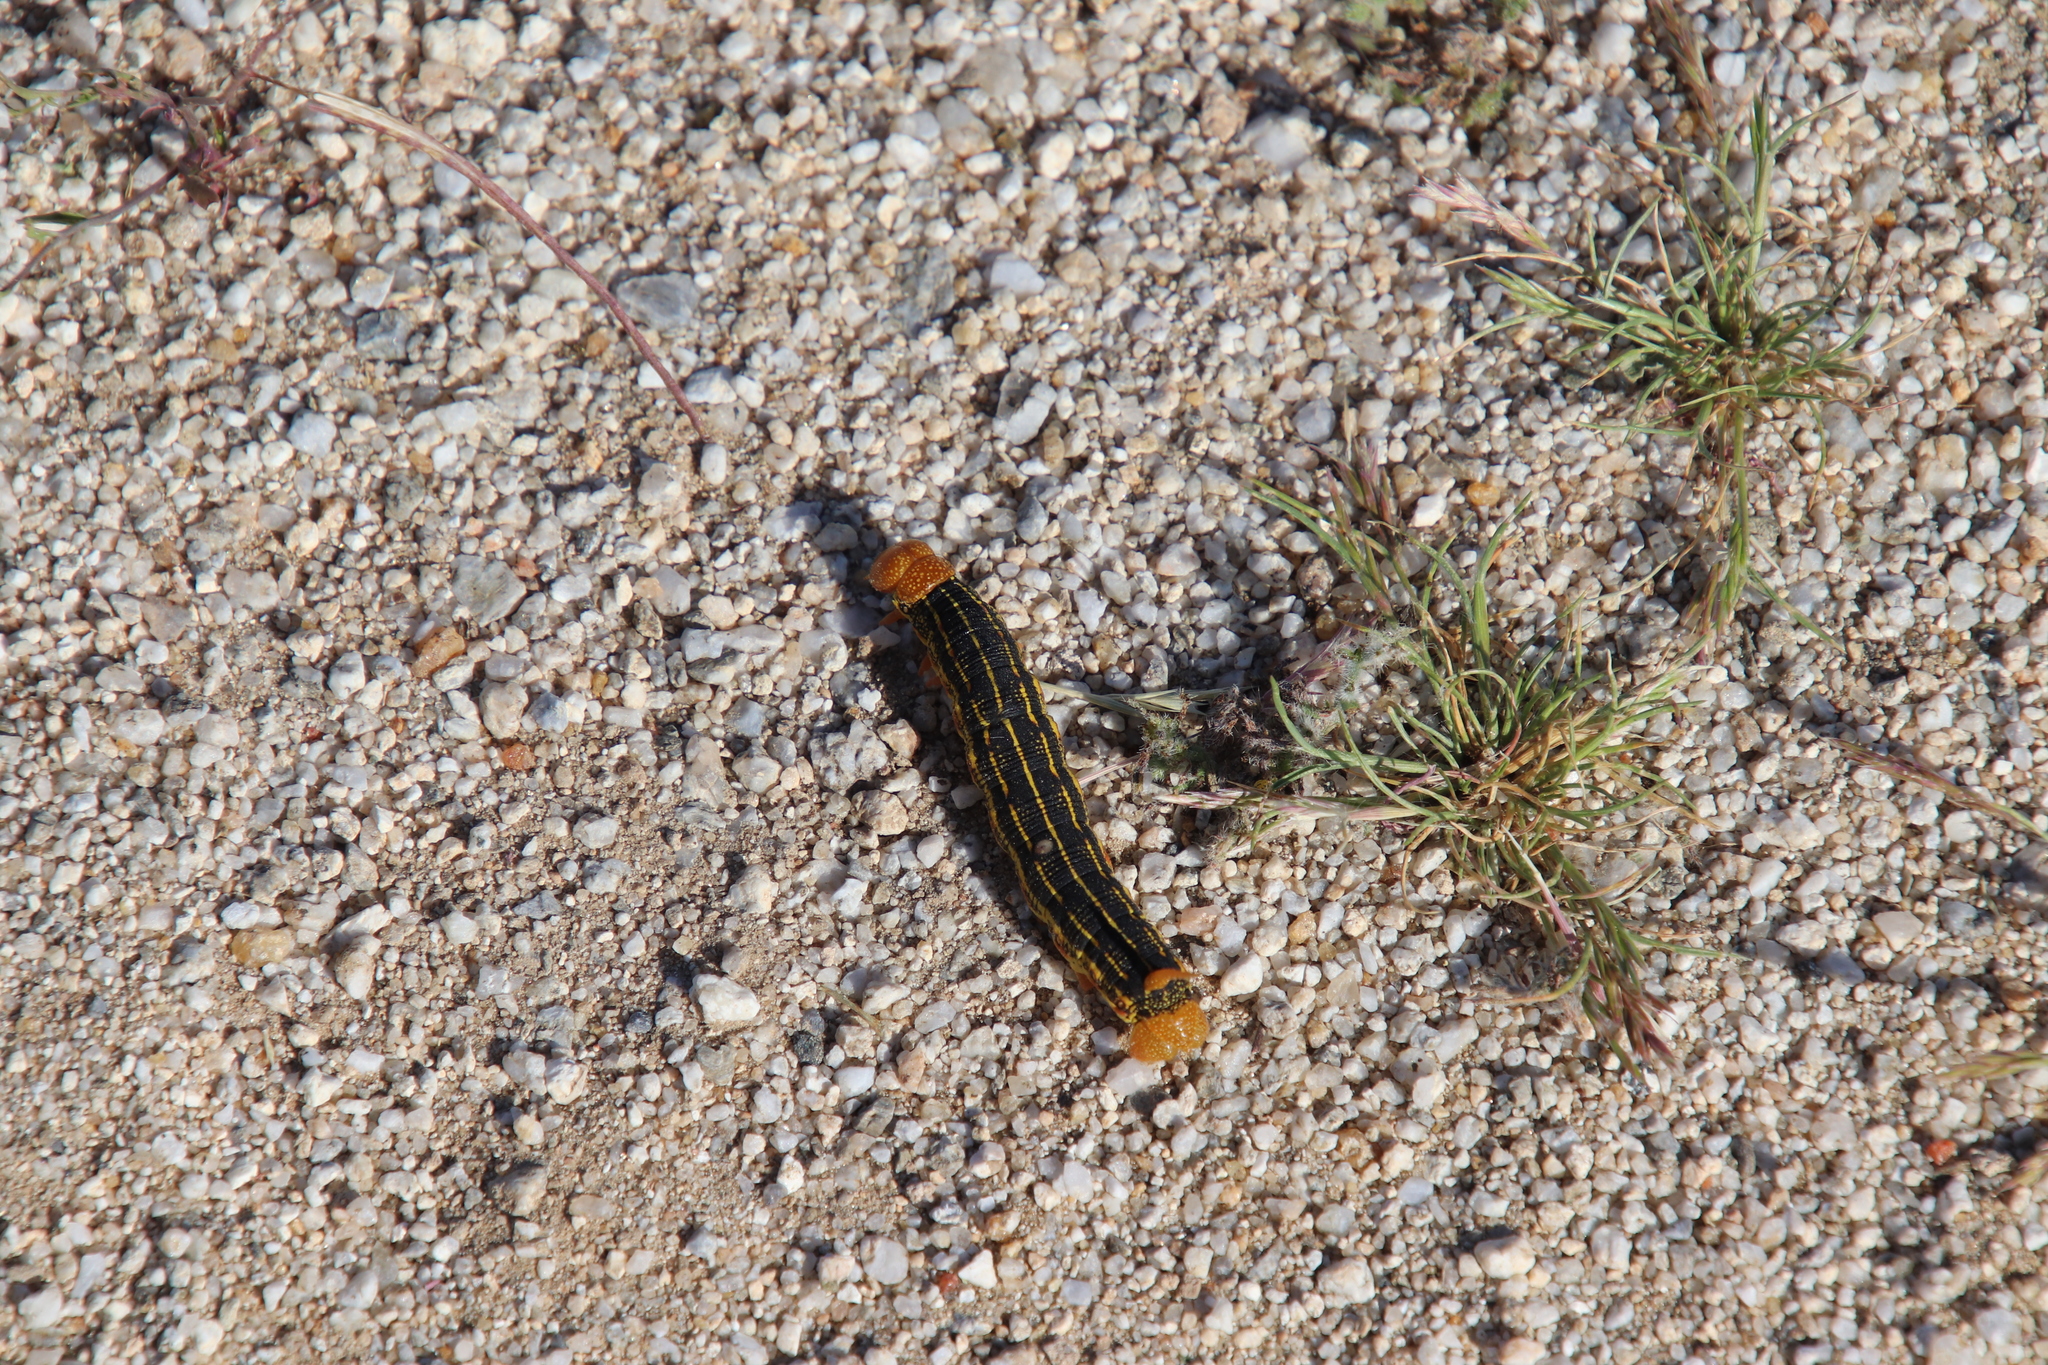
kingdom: Animalia
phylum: Arthropoda
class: Insecta
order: Lepidoptera
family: Sphingidae
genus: Hyles
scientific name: Hyles lineata
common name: White-lined sphinx
